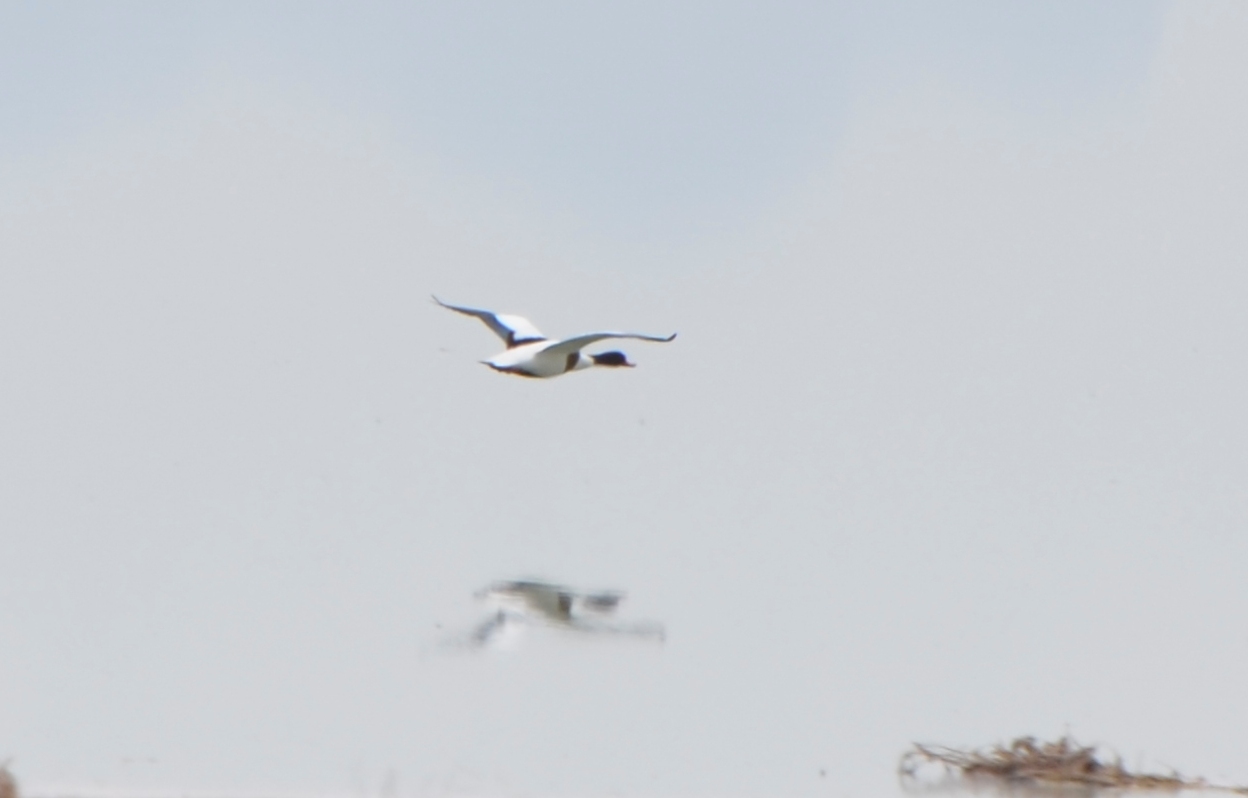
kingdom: Animalia
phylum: Chordata
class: Aves
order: Anseriformes
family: Anatidae
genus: Tadorna
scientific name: Tadorna tadorna
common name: Common shelduck
